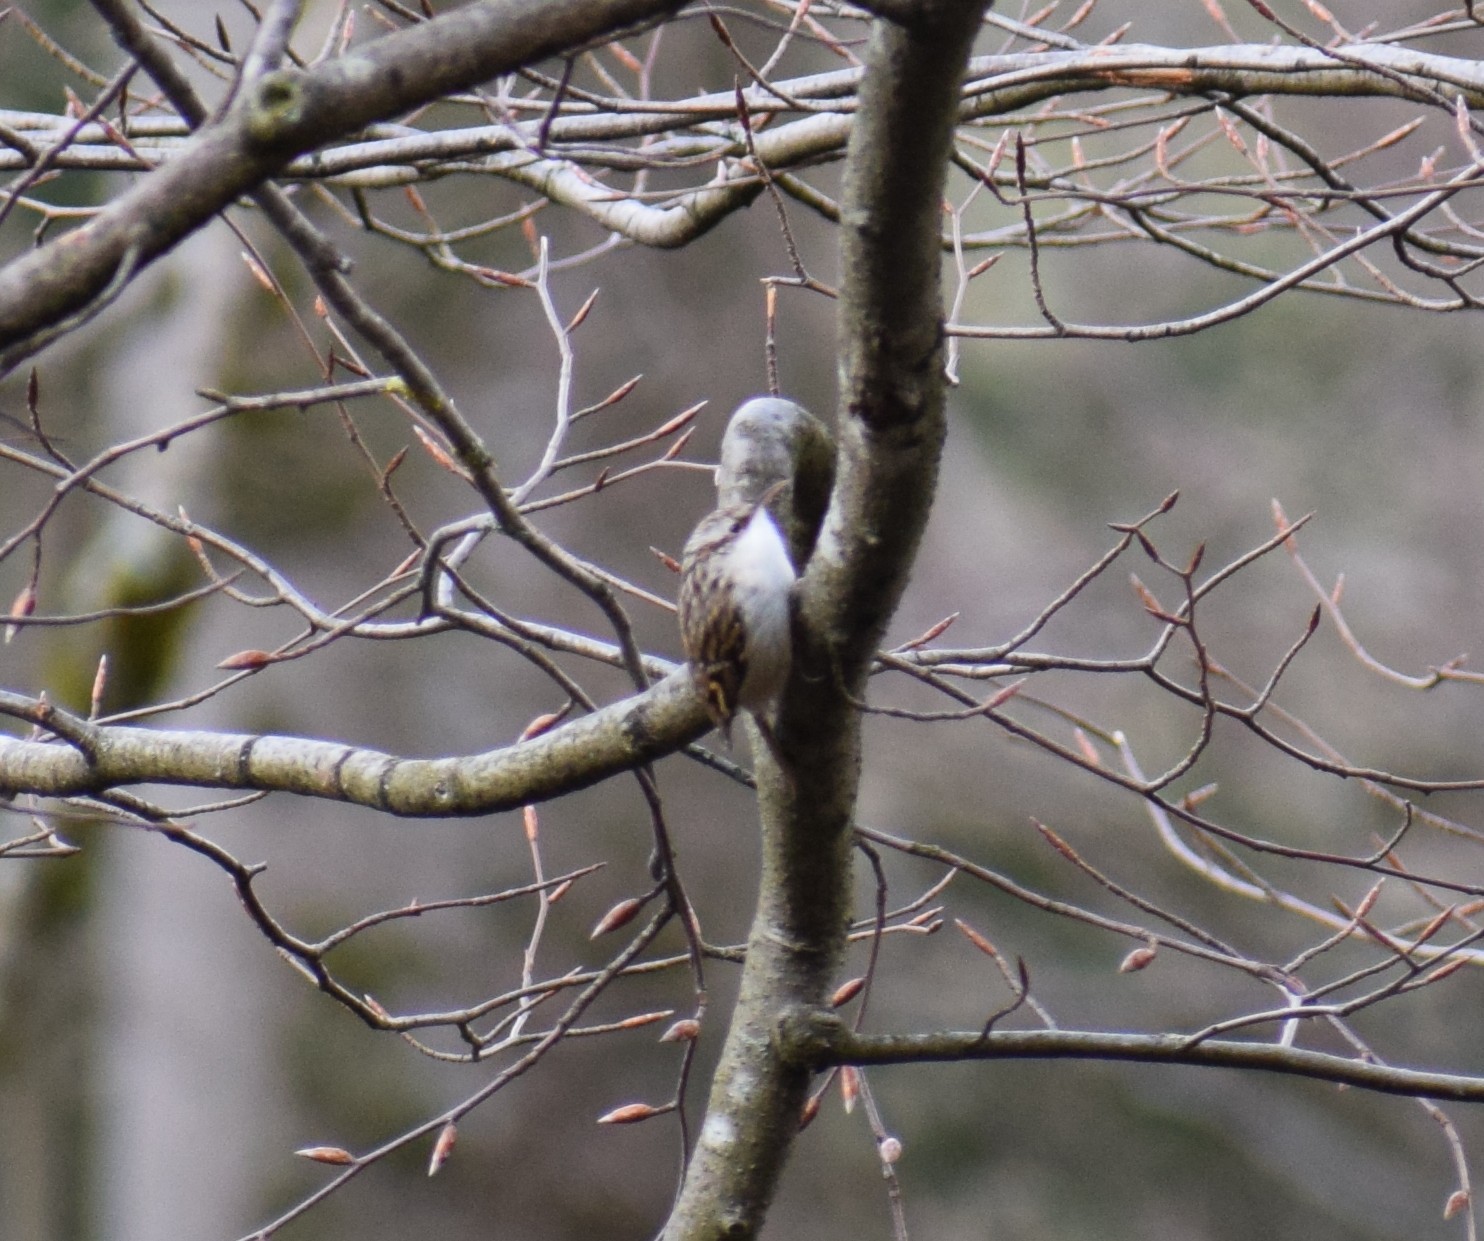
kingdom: Animalia
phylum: Chordata
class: Aves
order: Passeriformes
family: Certhiidae
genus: Certhia
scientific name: Certhia familiaris
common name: Eurasian treecreeper
